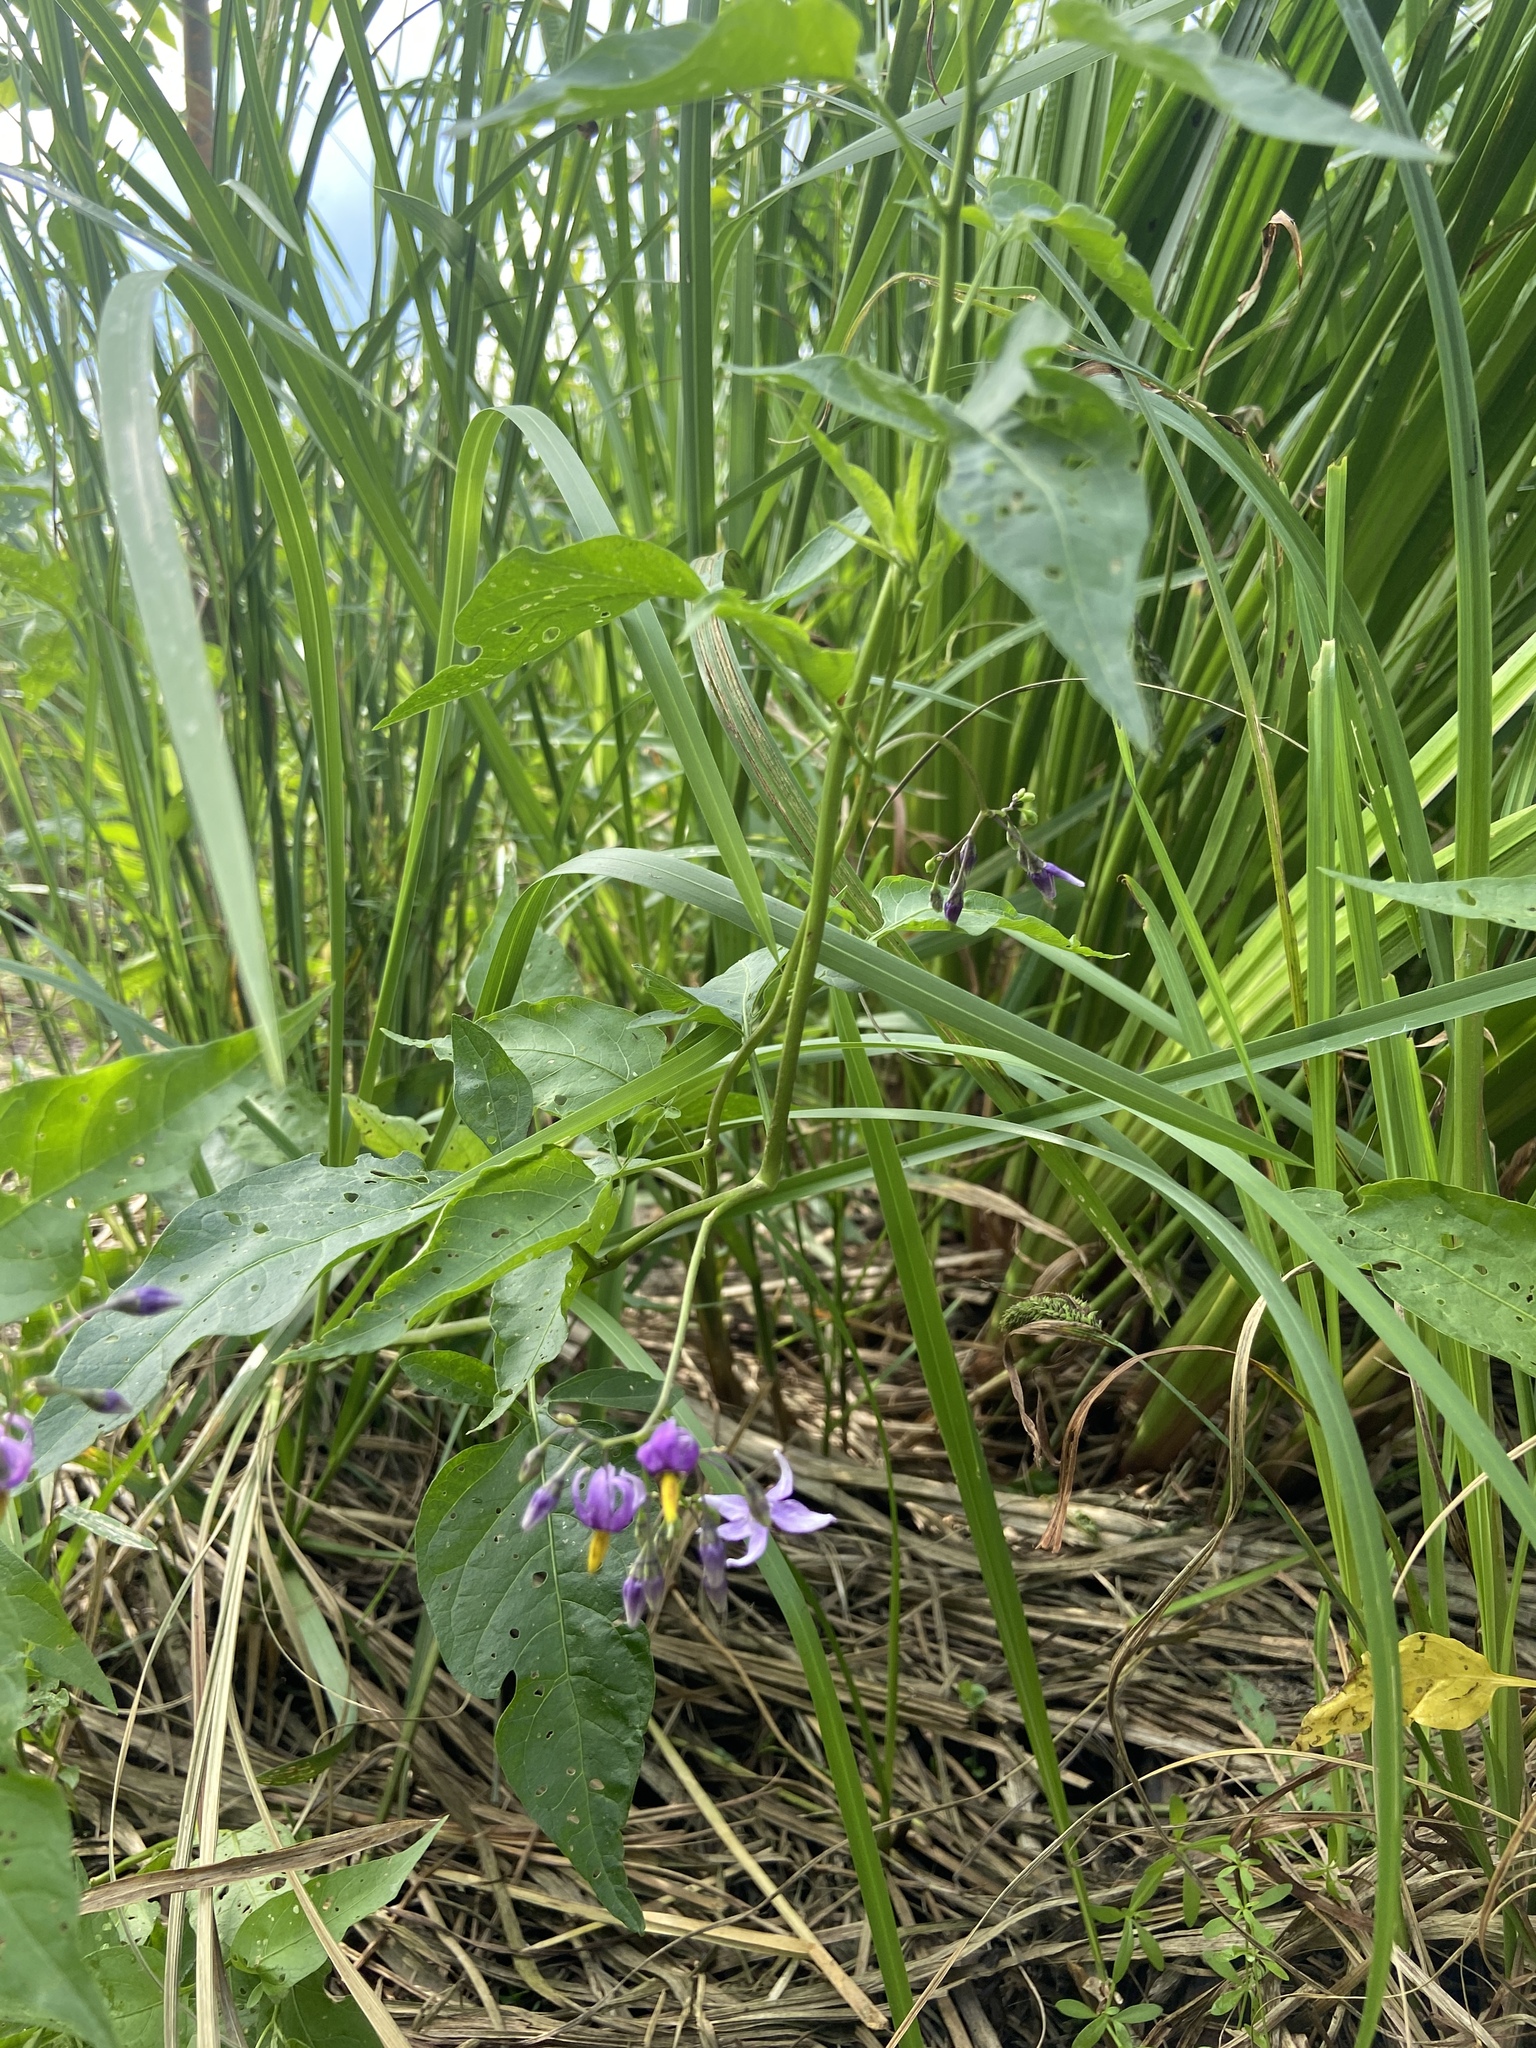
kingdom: Plantae
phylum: Tracheophyta
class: Magnoliopsida
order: Solanales
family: Solanaceae
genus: Solanum
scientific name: Solanum dulcamara
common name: Climbing nightshade
